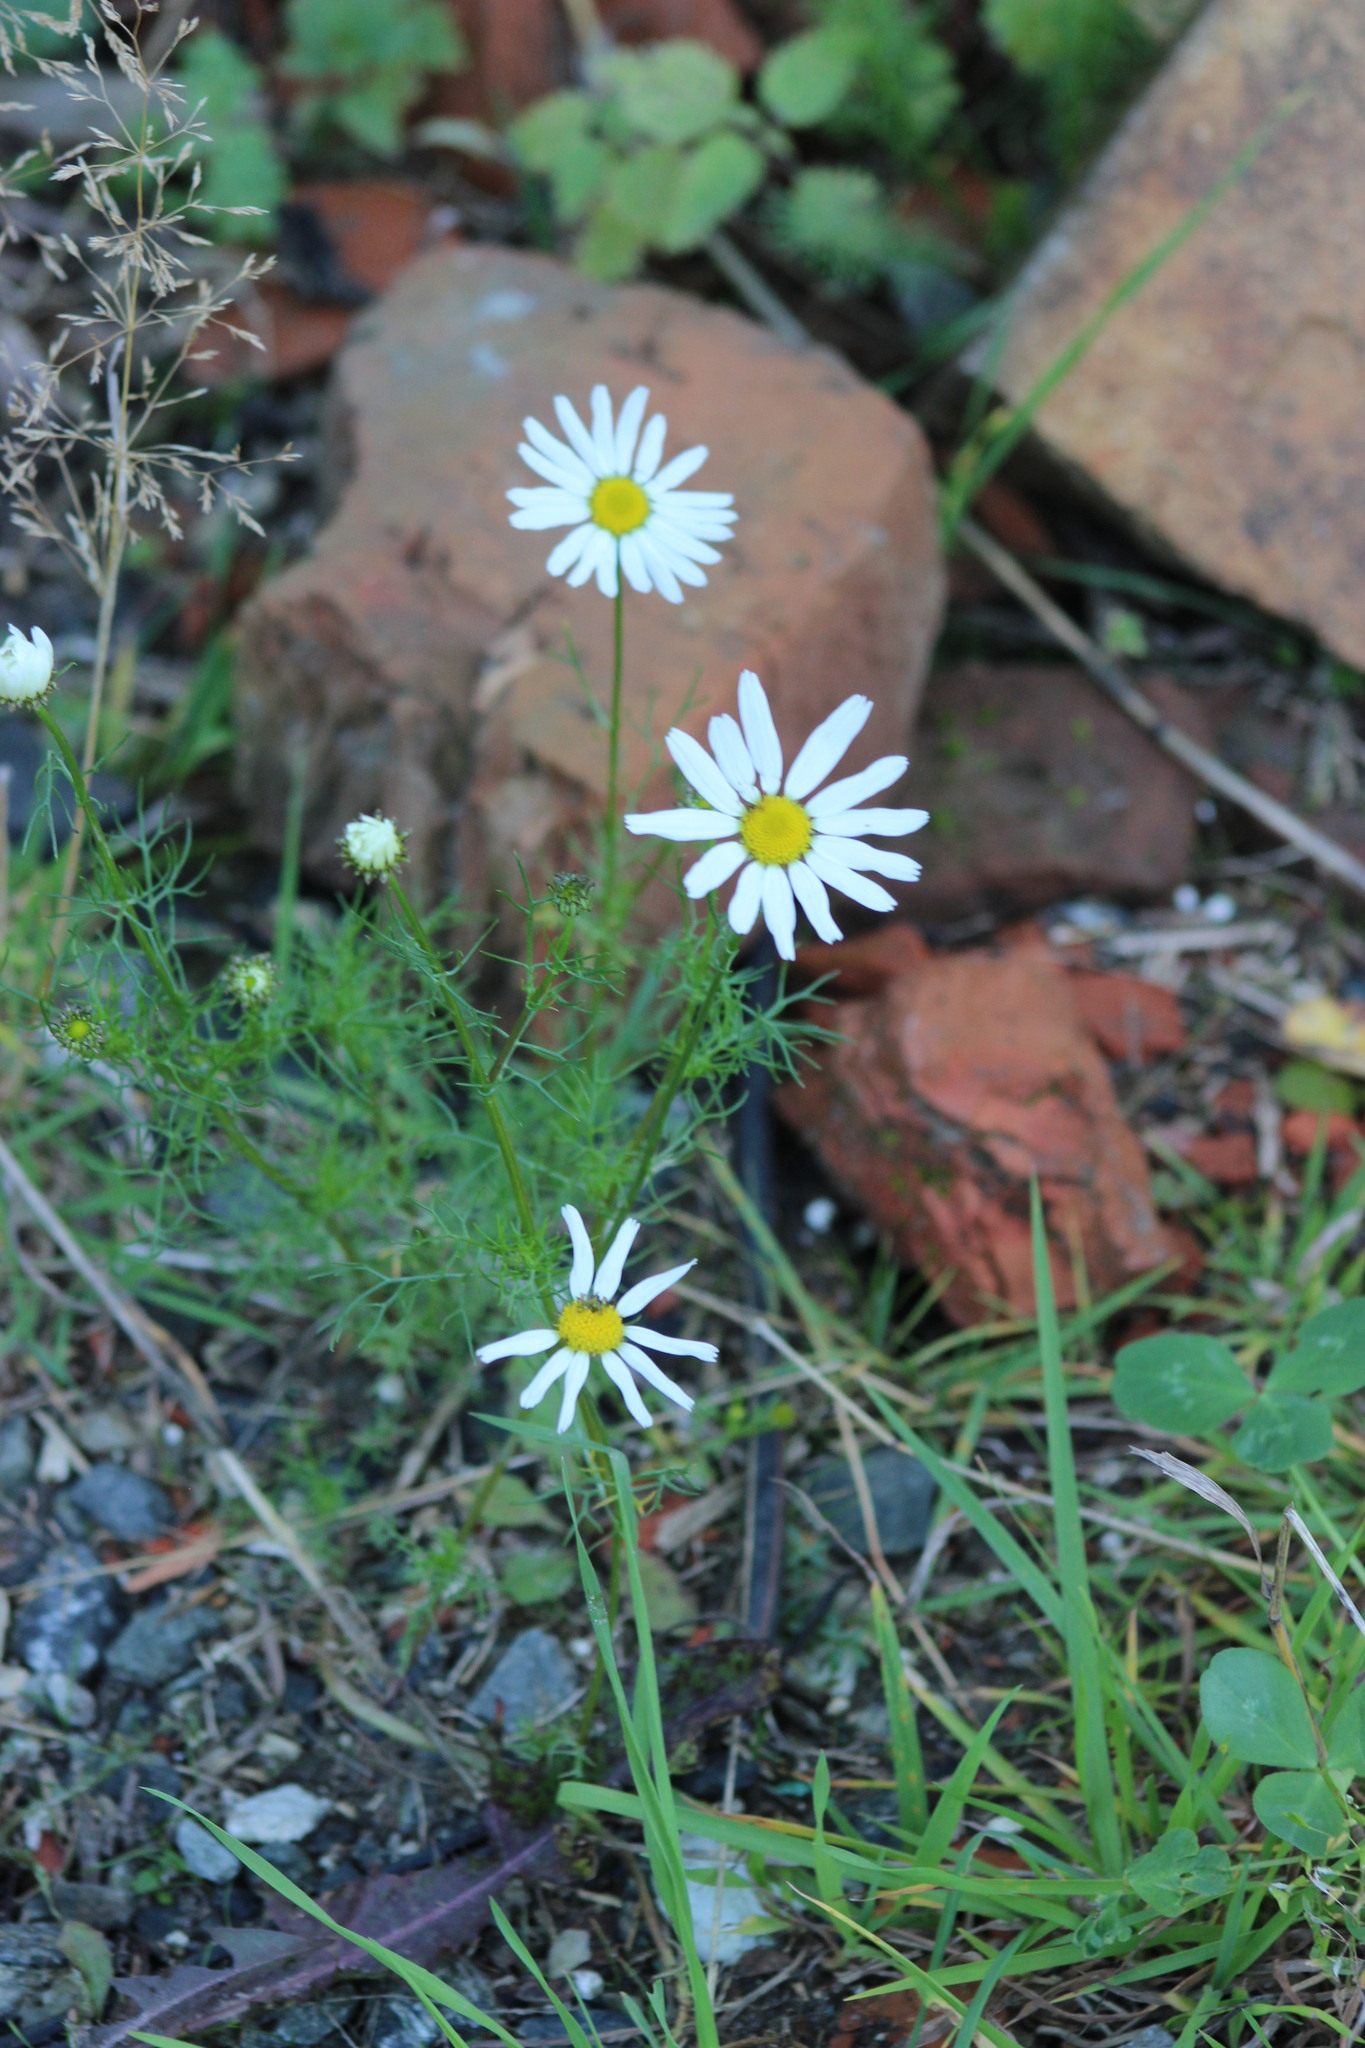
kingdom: Plantae
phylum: Tracheophyta
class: Magnoliopsida
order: Asterales
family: Asteraceae
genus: Tripleurospermum
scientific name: Tripleurospermum inodorum
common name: Scentless mayweed
